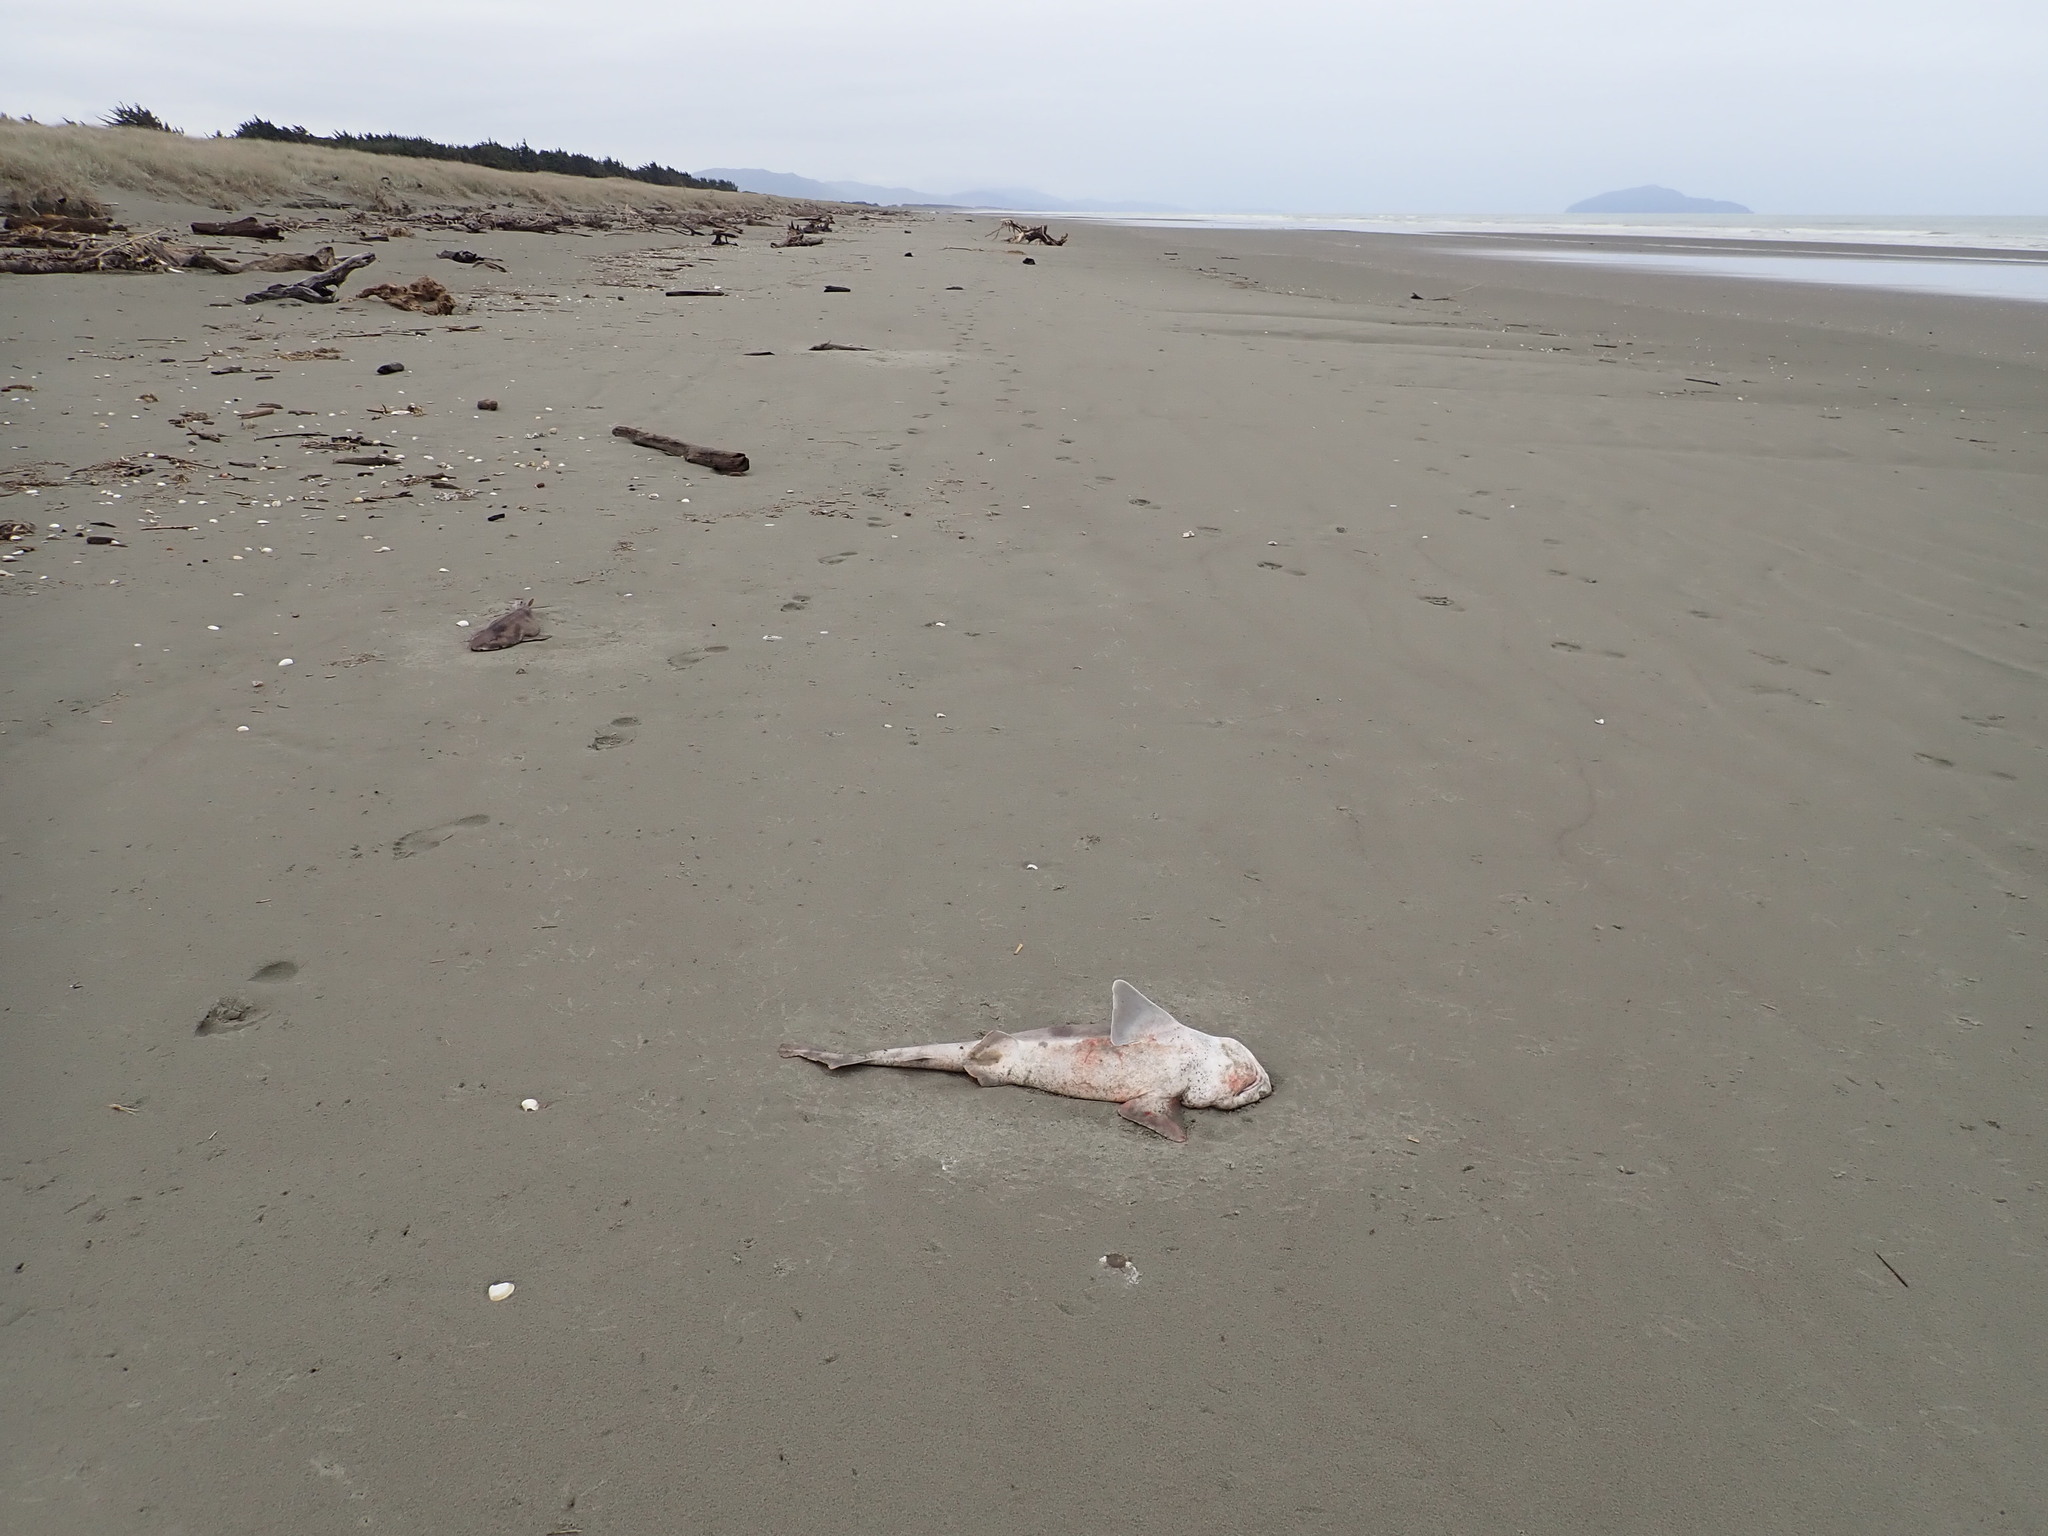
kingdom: Animalia
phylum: Chordata
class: Elasmobranchii
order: Carcharhiniformes
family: Scyliorhinidae
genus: Cephaloscyllium
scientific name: Cephaloscyllium isabellum
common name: Carpet shark
